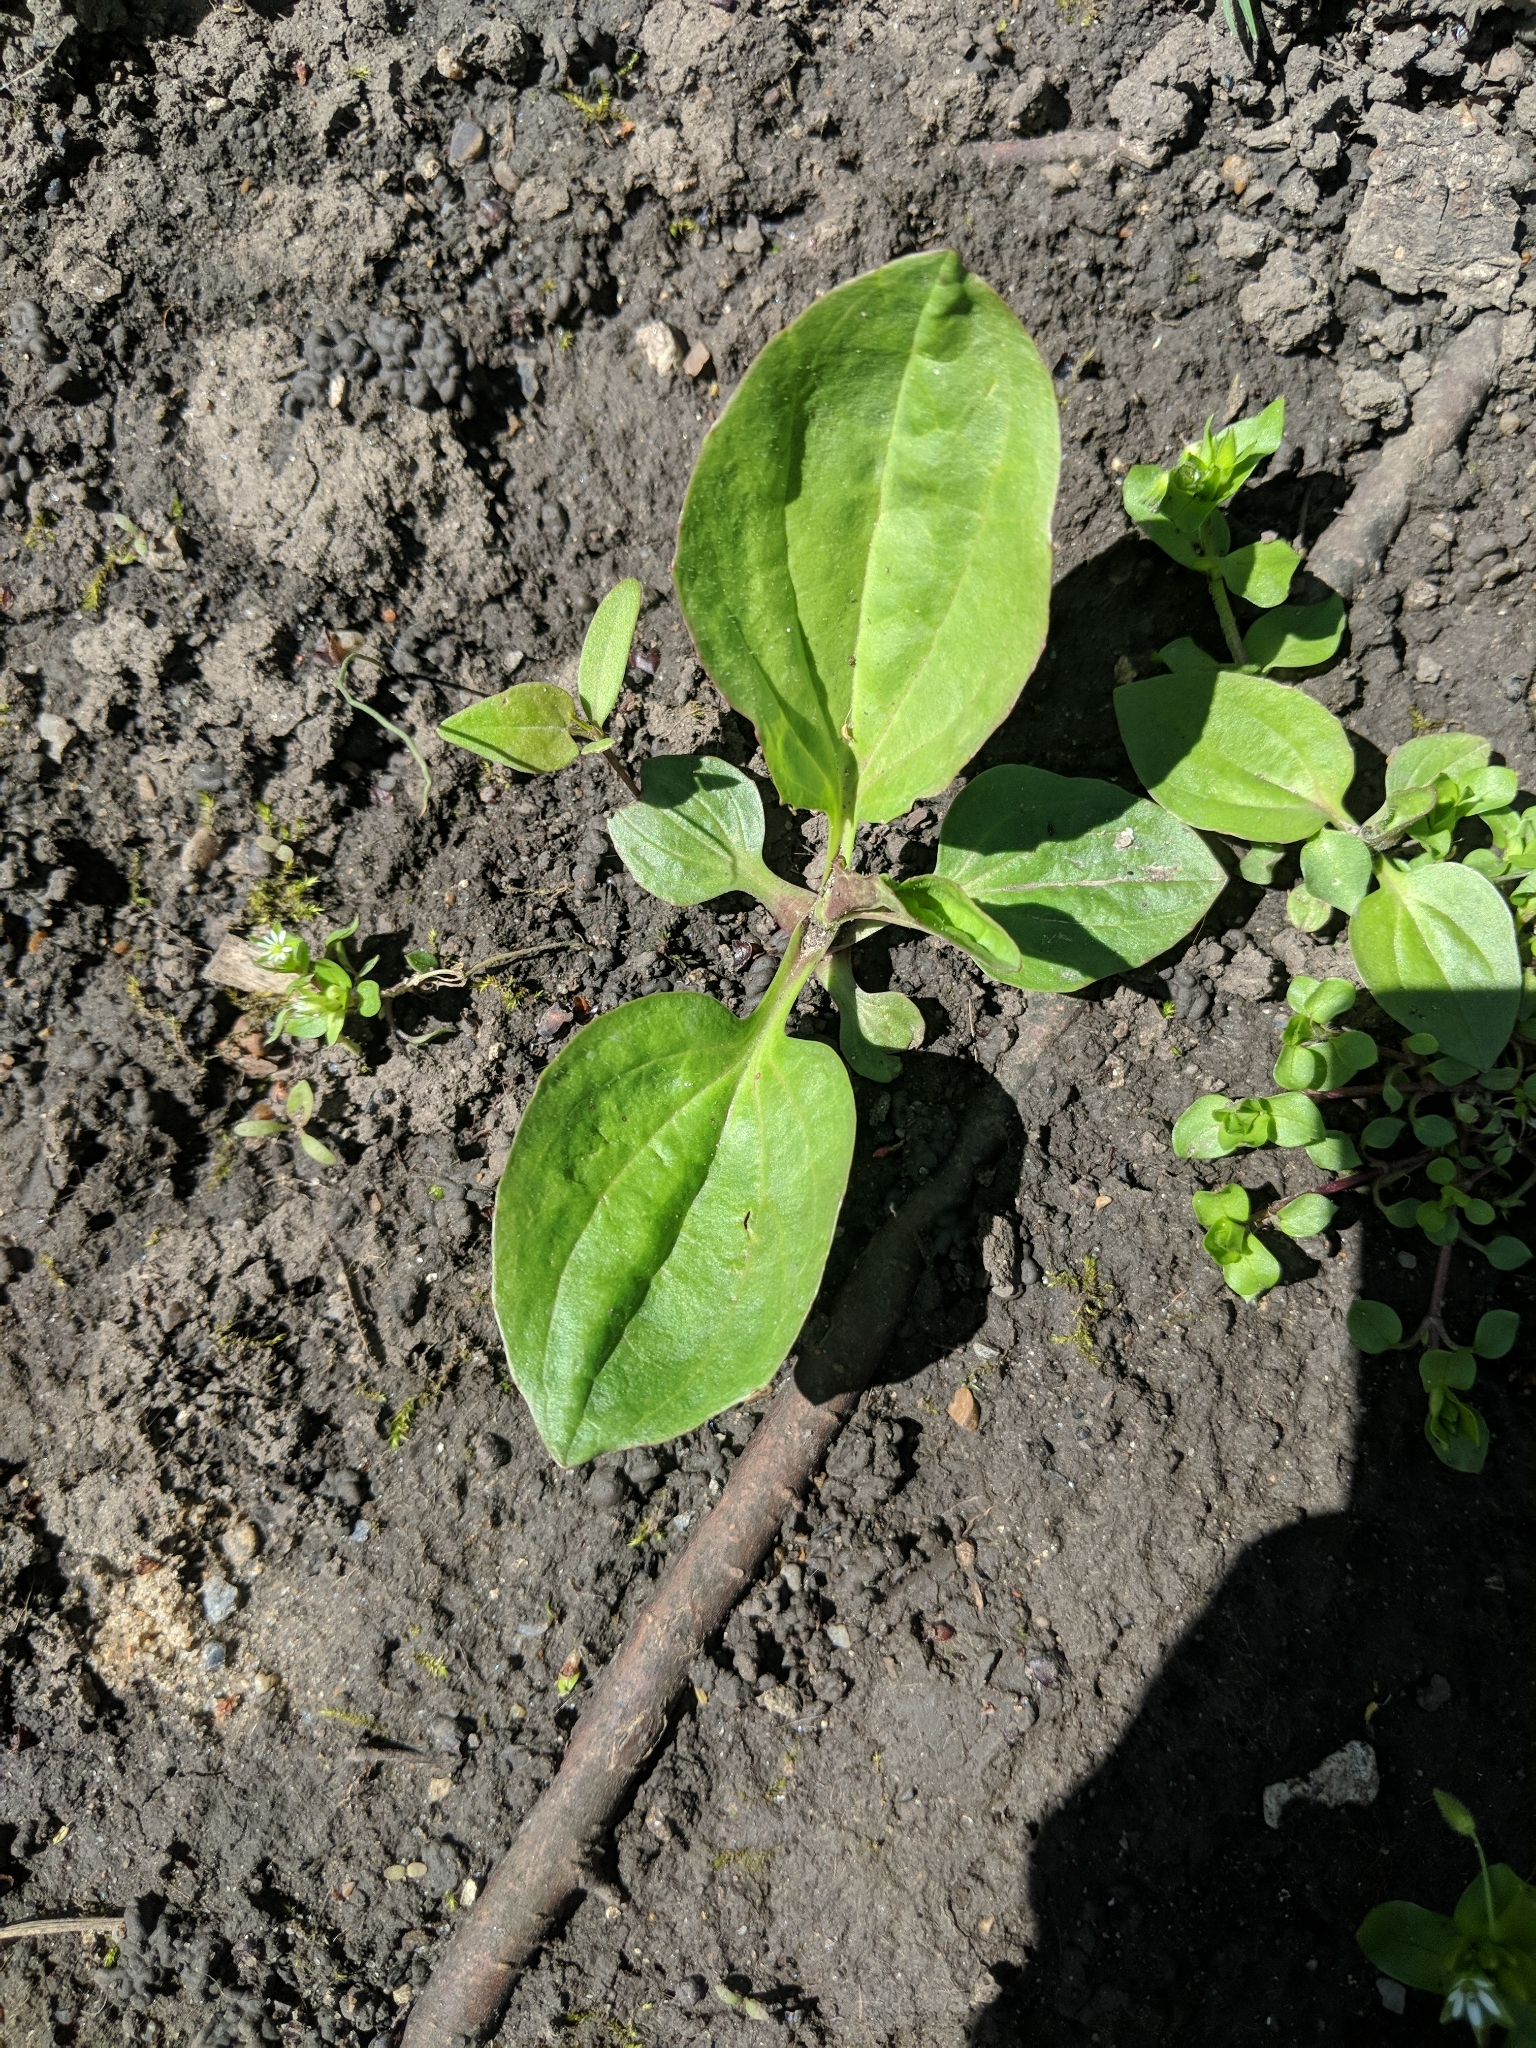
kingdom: Plantae
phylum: Tracheophyta
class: Magnoliopsida
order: Lamiales
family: Plantaginaceae
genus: Plantago
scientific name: Plantago major
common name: Common plantain
